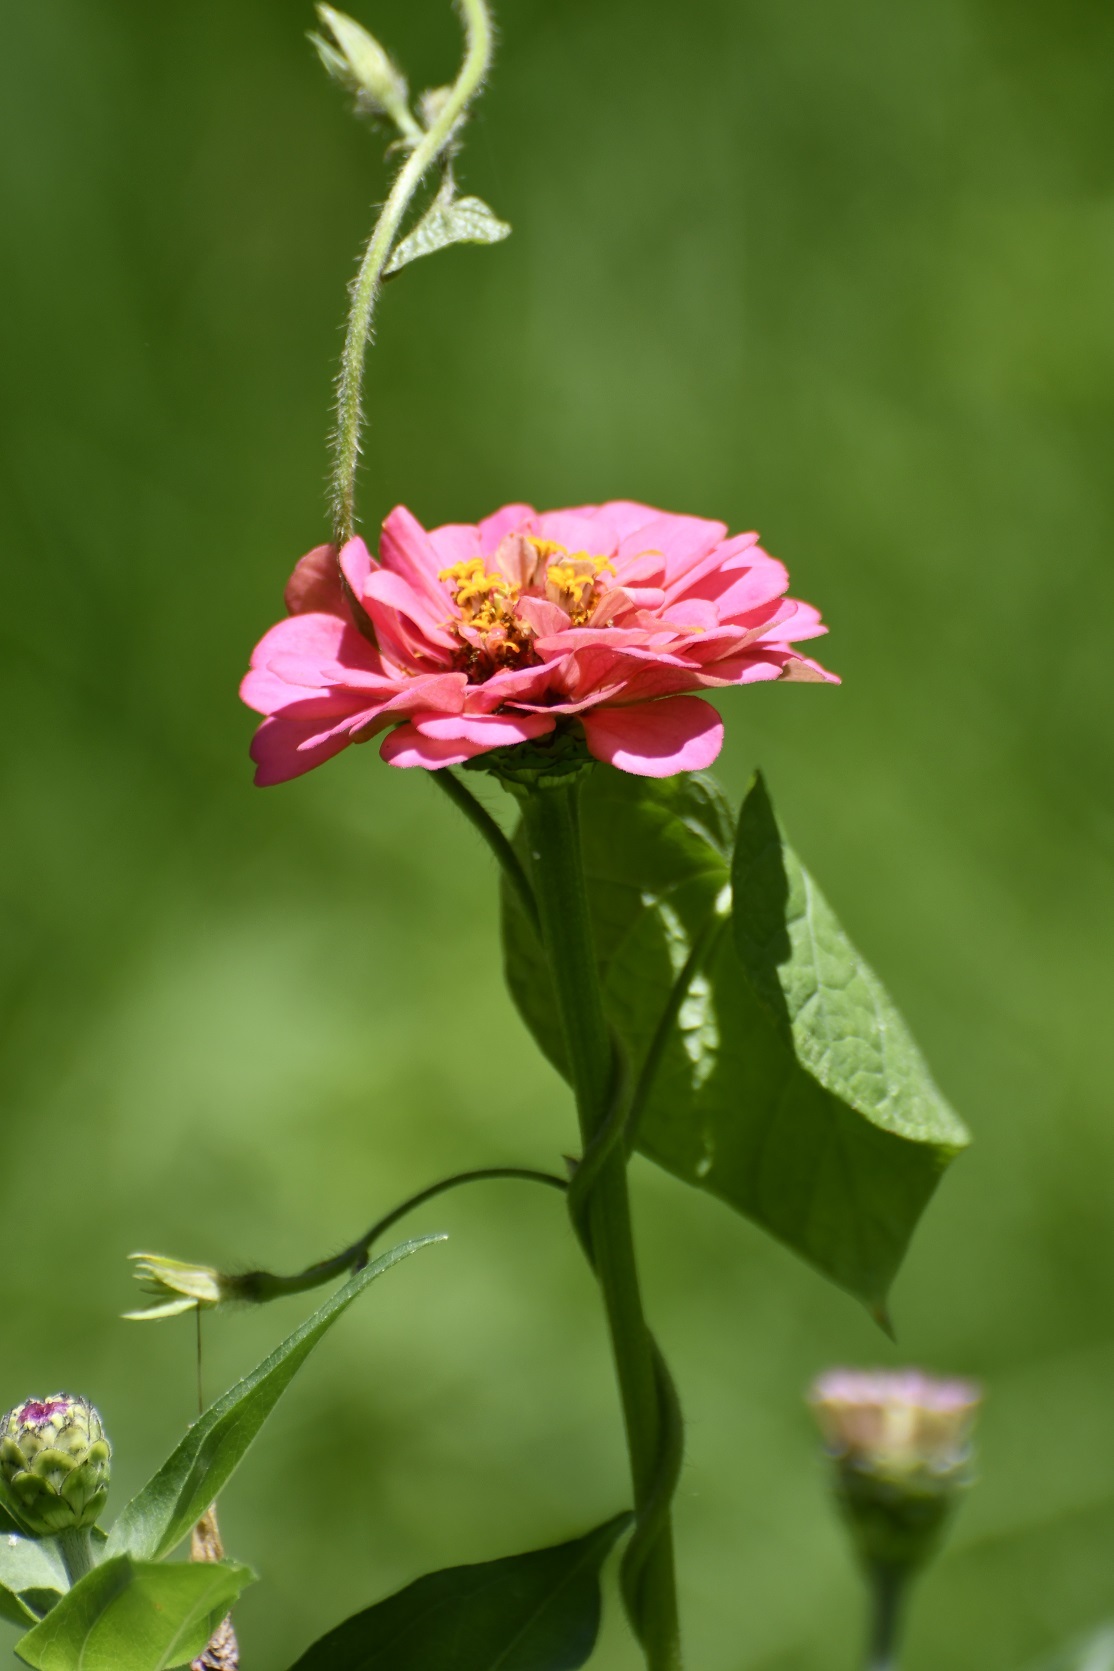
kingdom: Plantae
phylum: Tracheophyta
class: Magnoliopsida
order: Asterales
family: Asteraceae
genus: Zinnia
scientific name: Zinnia elegans
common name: Youth-and-age
